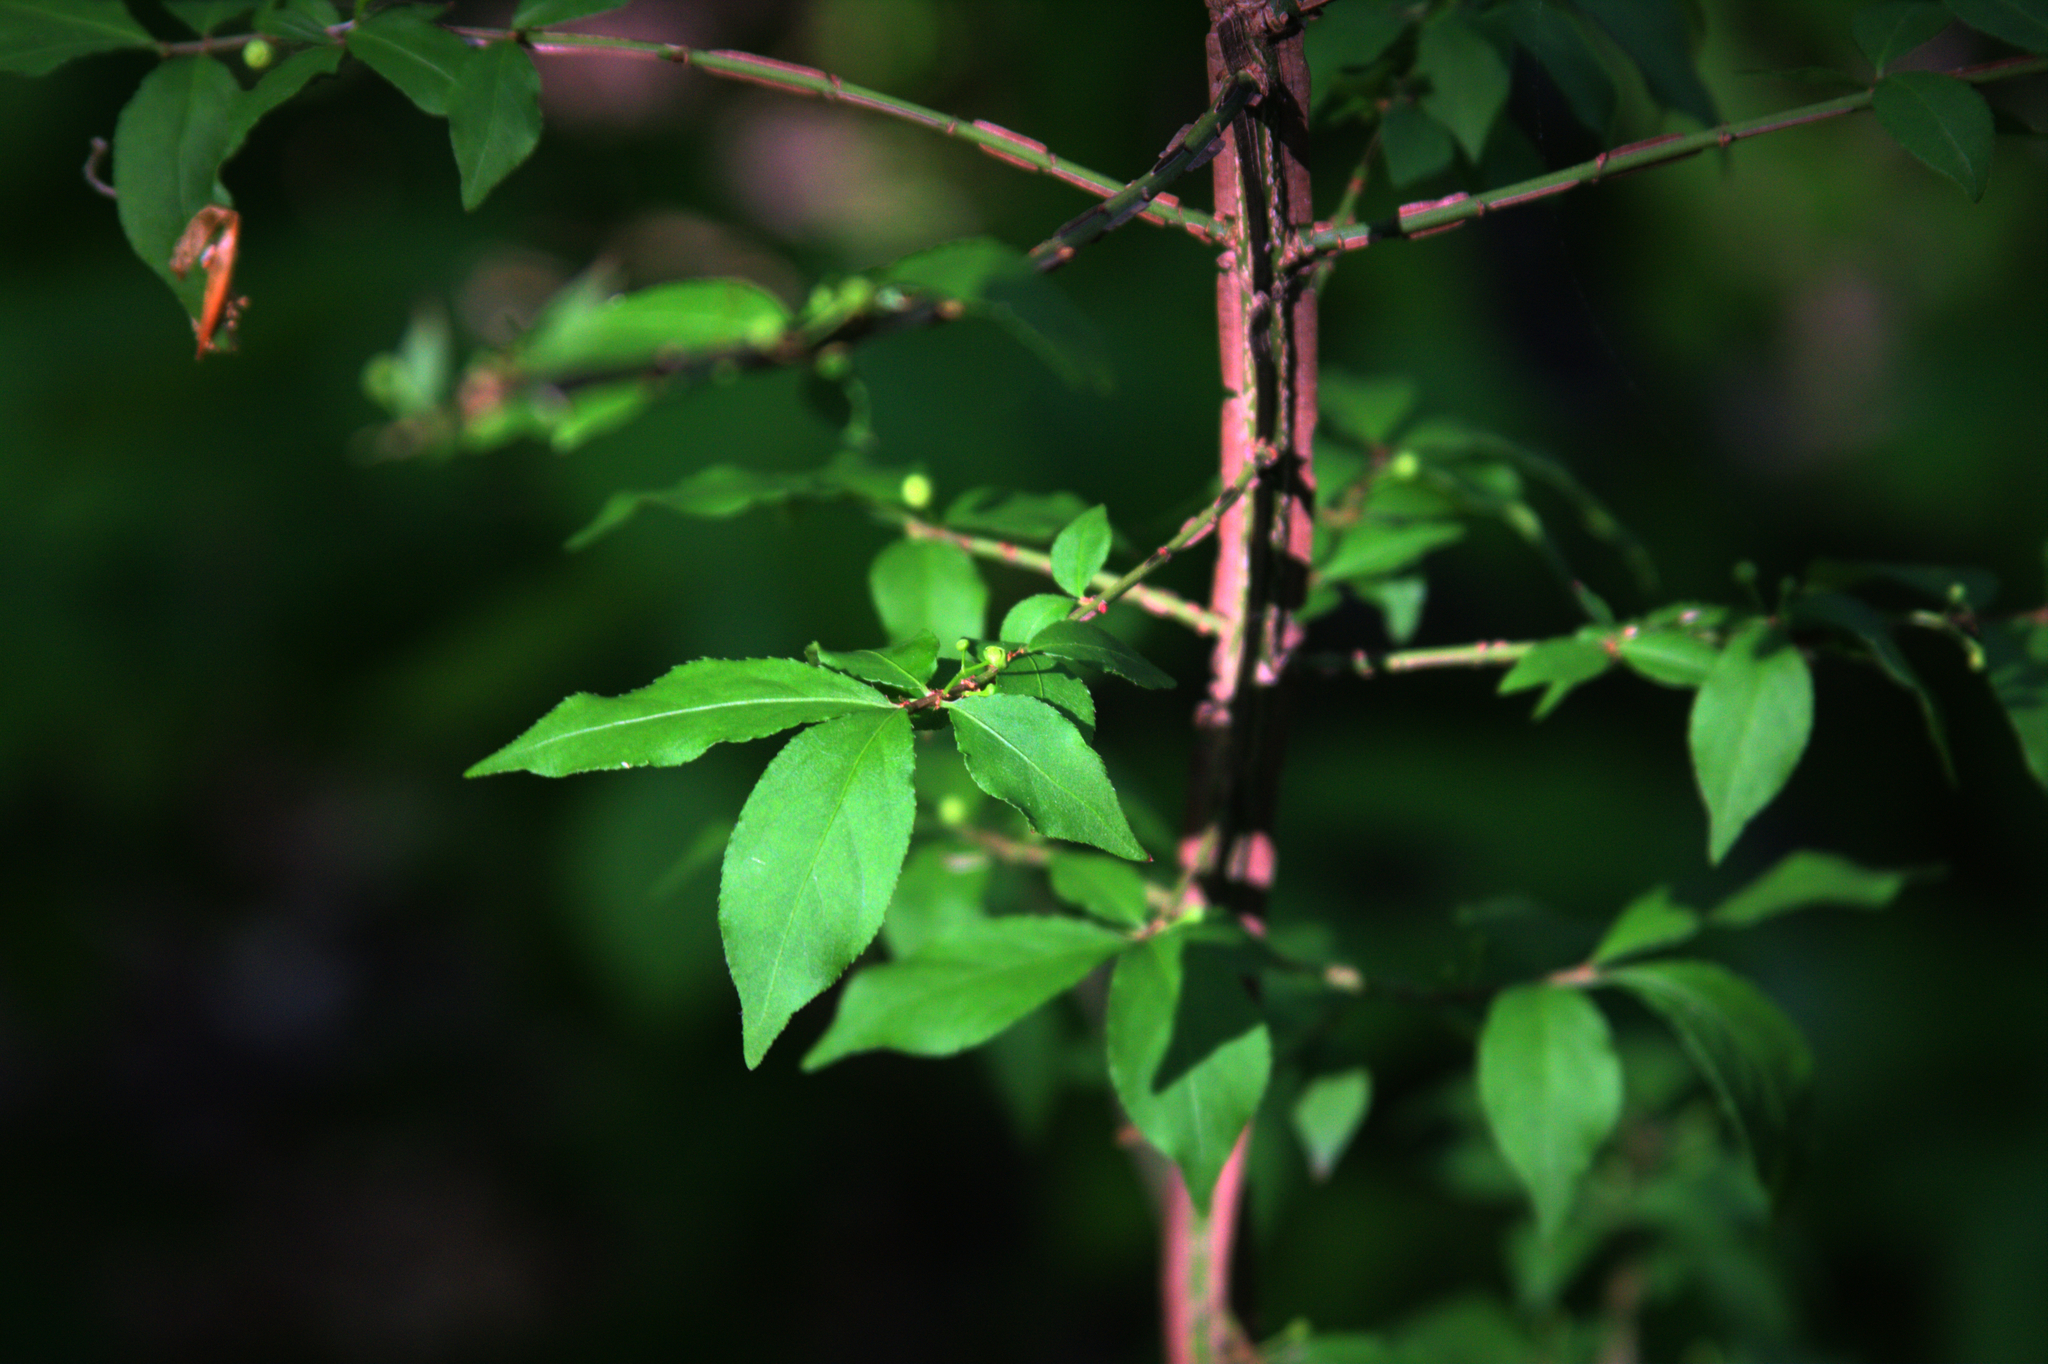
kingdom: Plantae
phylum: Tracheophyta
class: Magnoliopsida
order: Celastrales
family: Celastraceae
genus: Euonymus
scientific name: Euonymus alatus
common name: Winged euonymus
